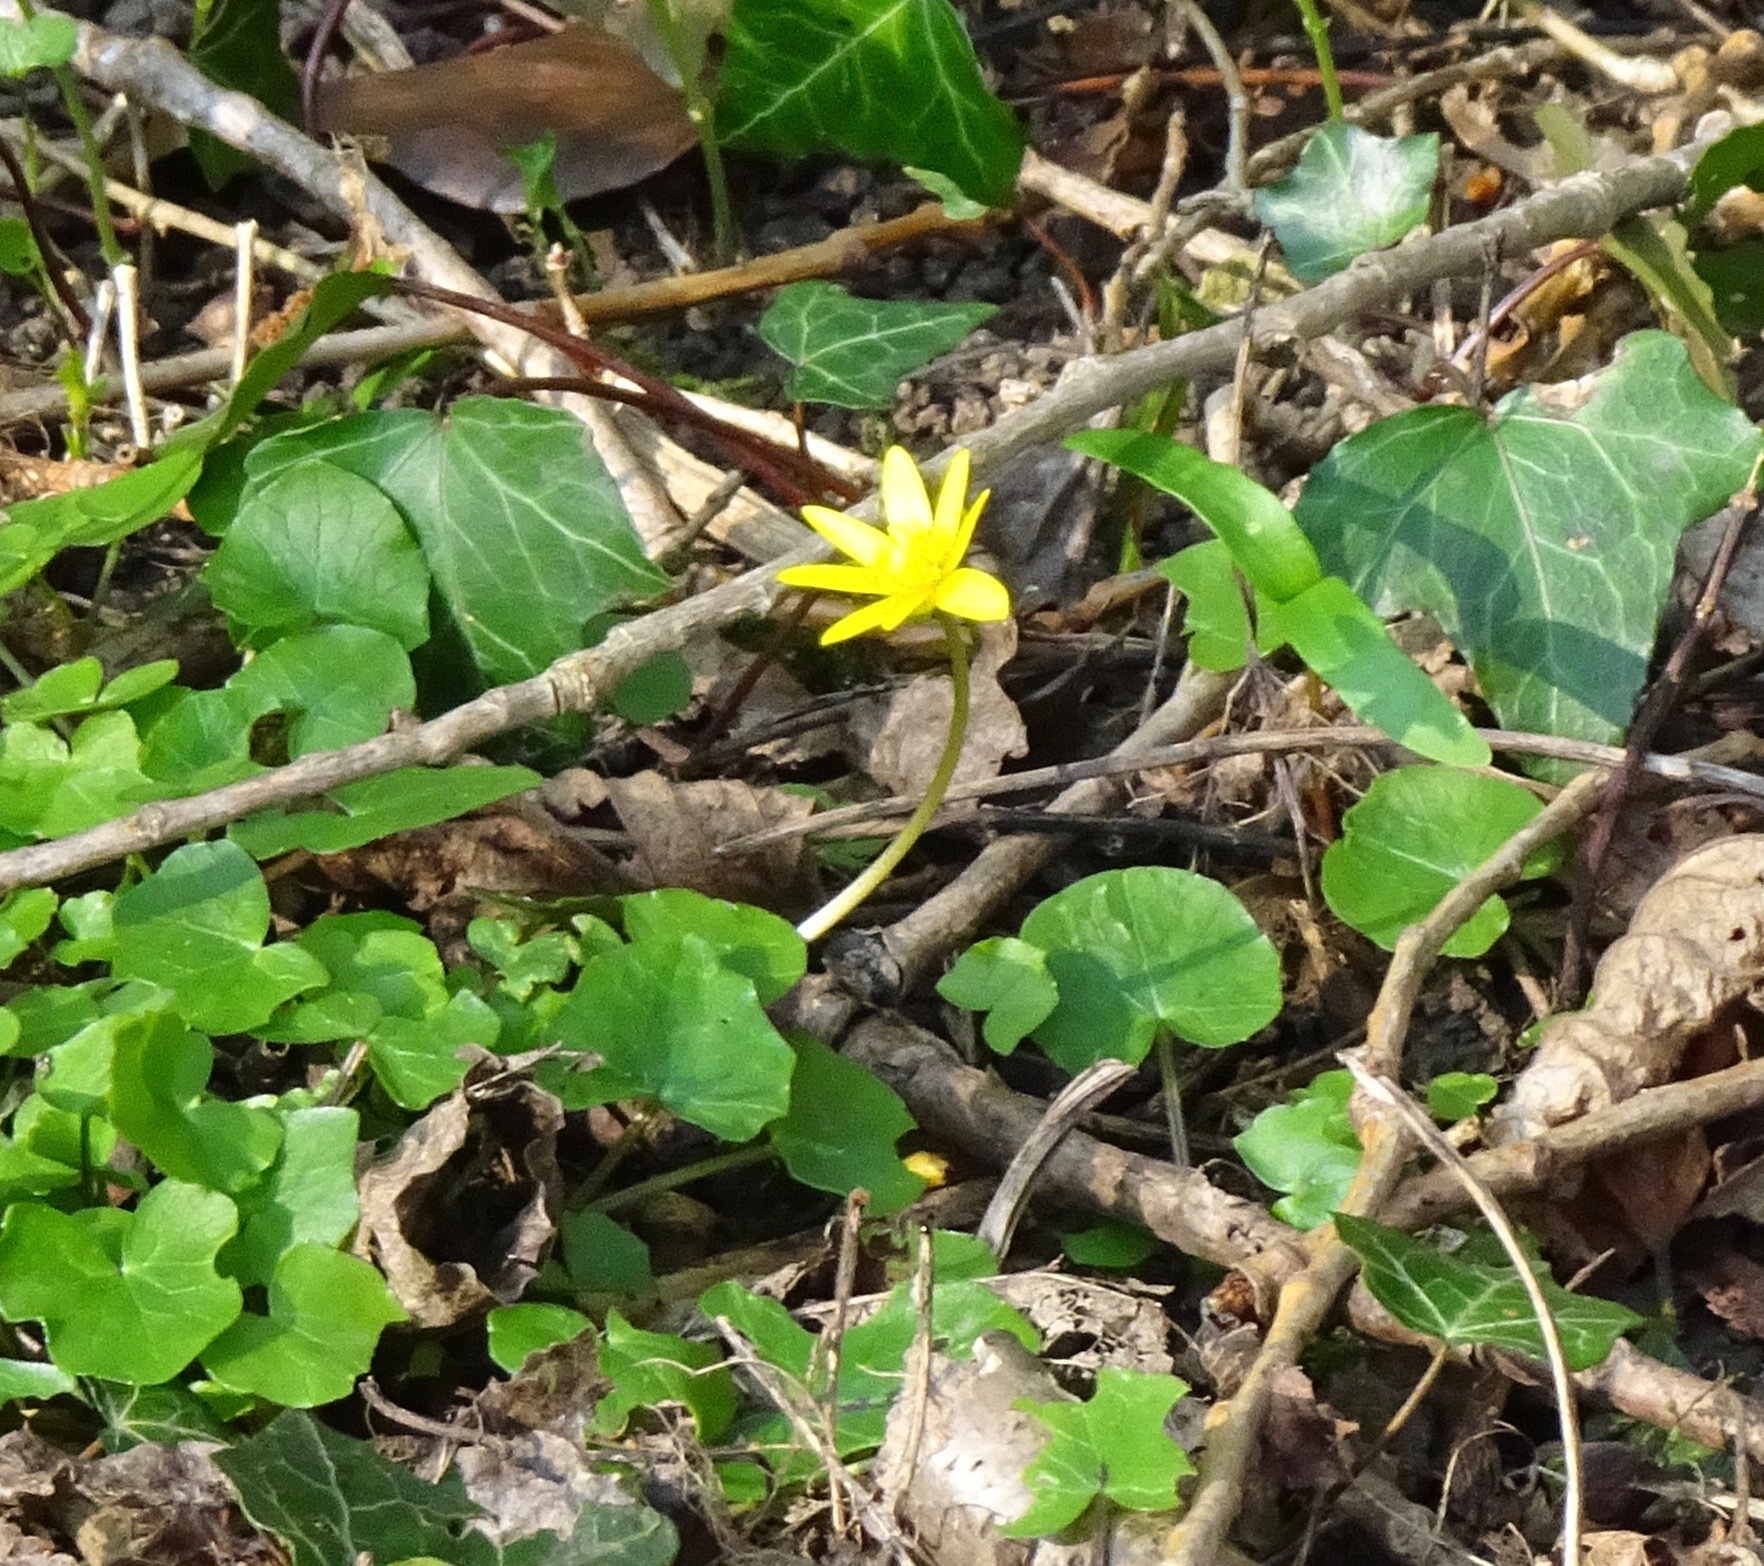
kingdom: Plantae
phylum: Tracheophyta
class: Magnoliopsida
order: Ranunculales
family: Ranunculaceae
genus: Ficaria
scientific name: Ficaria verna
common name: Lesser celandine
